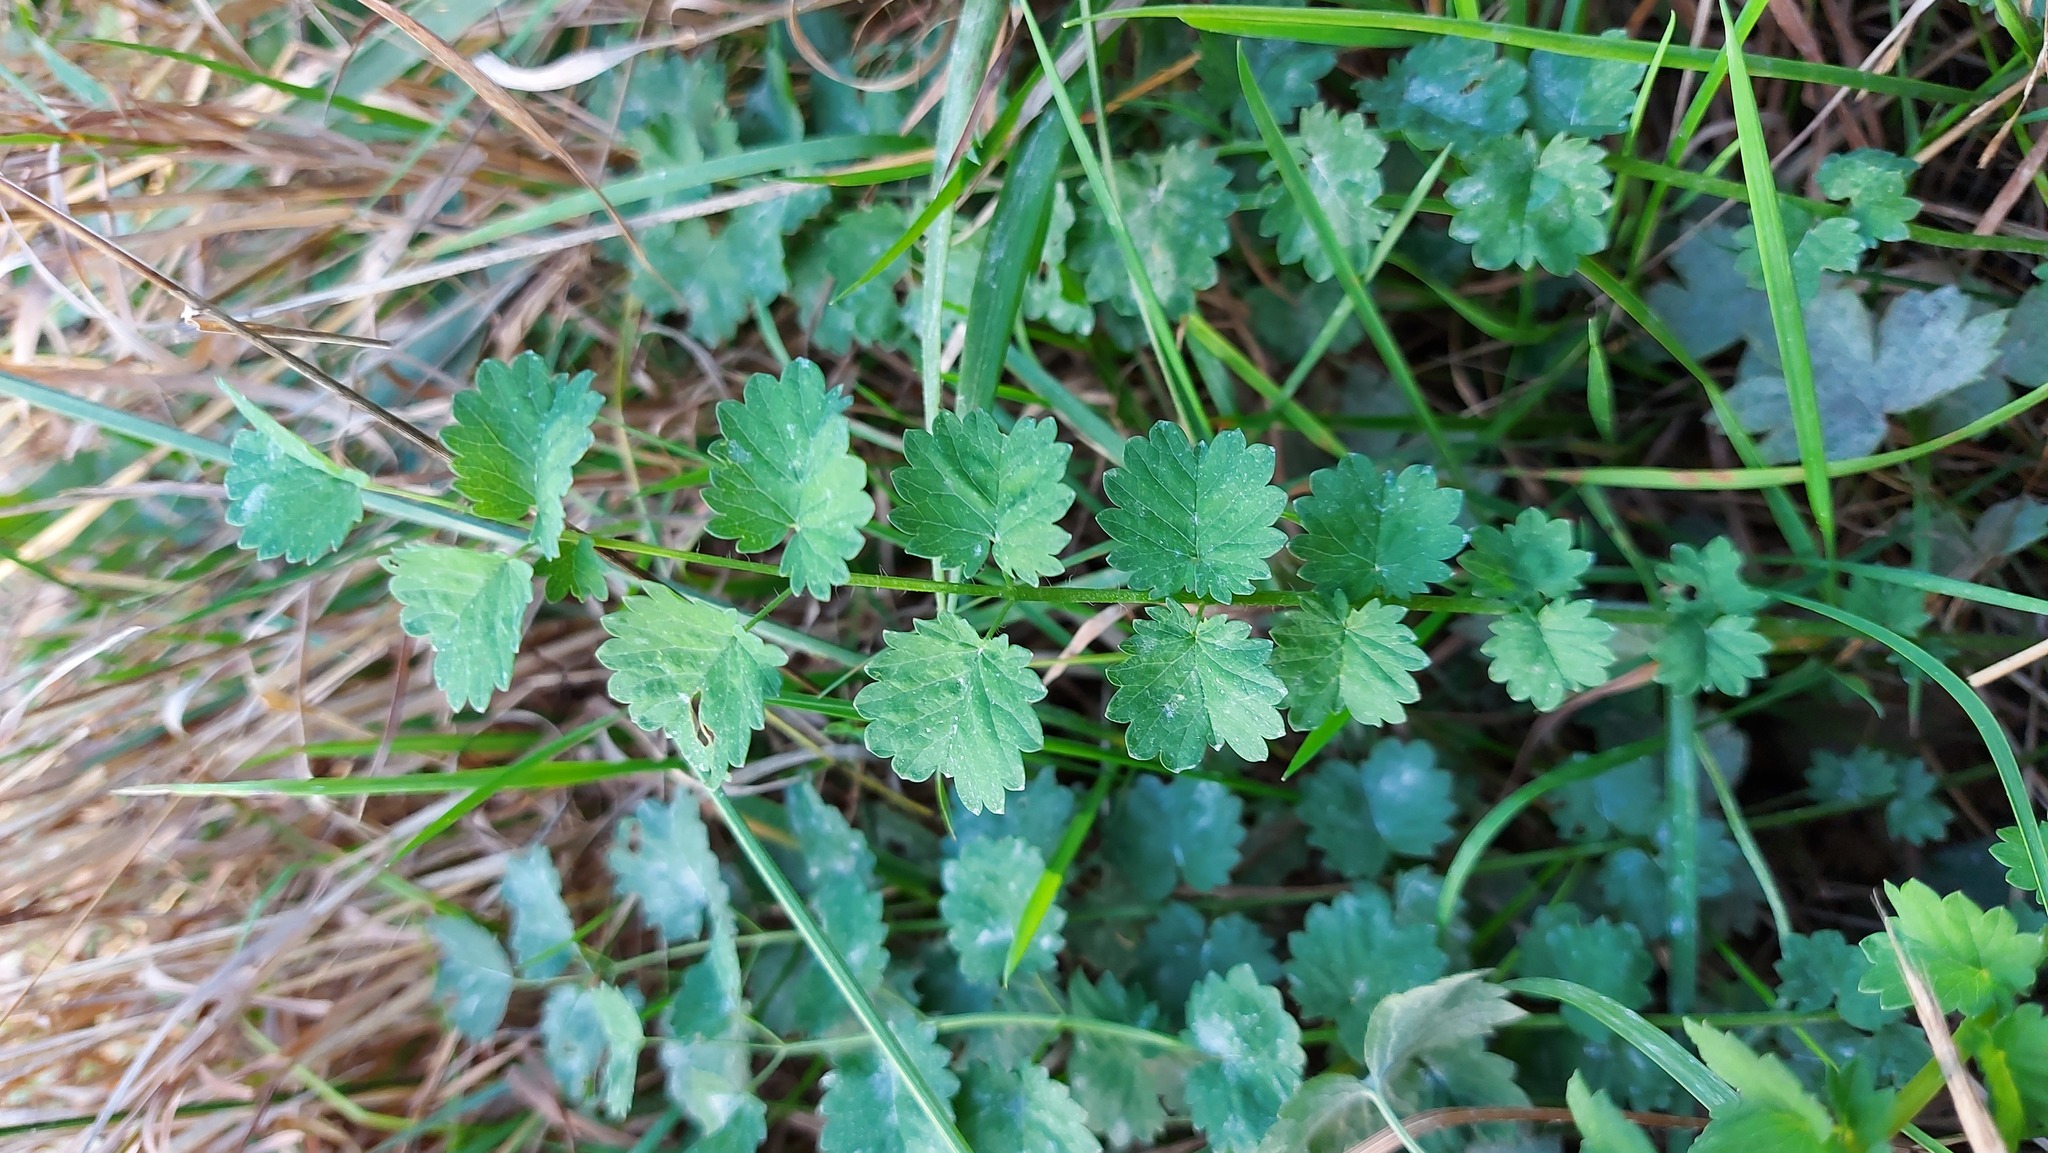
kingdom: Plantae
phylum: Tracheophyta
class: Magnoliopsida
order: Rosales
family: Rosaceae
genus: Poterium
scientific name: Poterium sanguisorba
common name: Salad burnet
